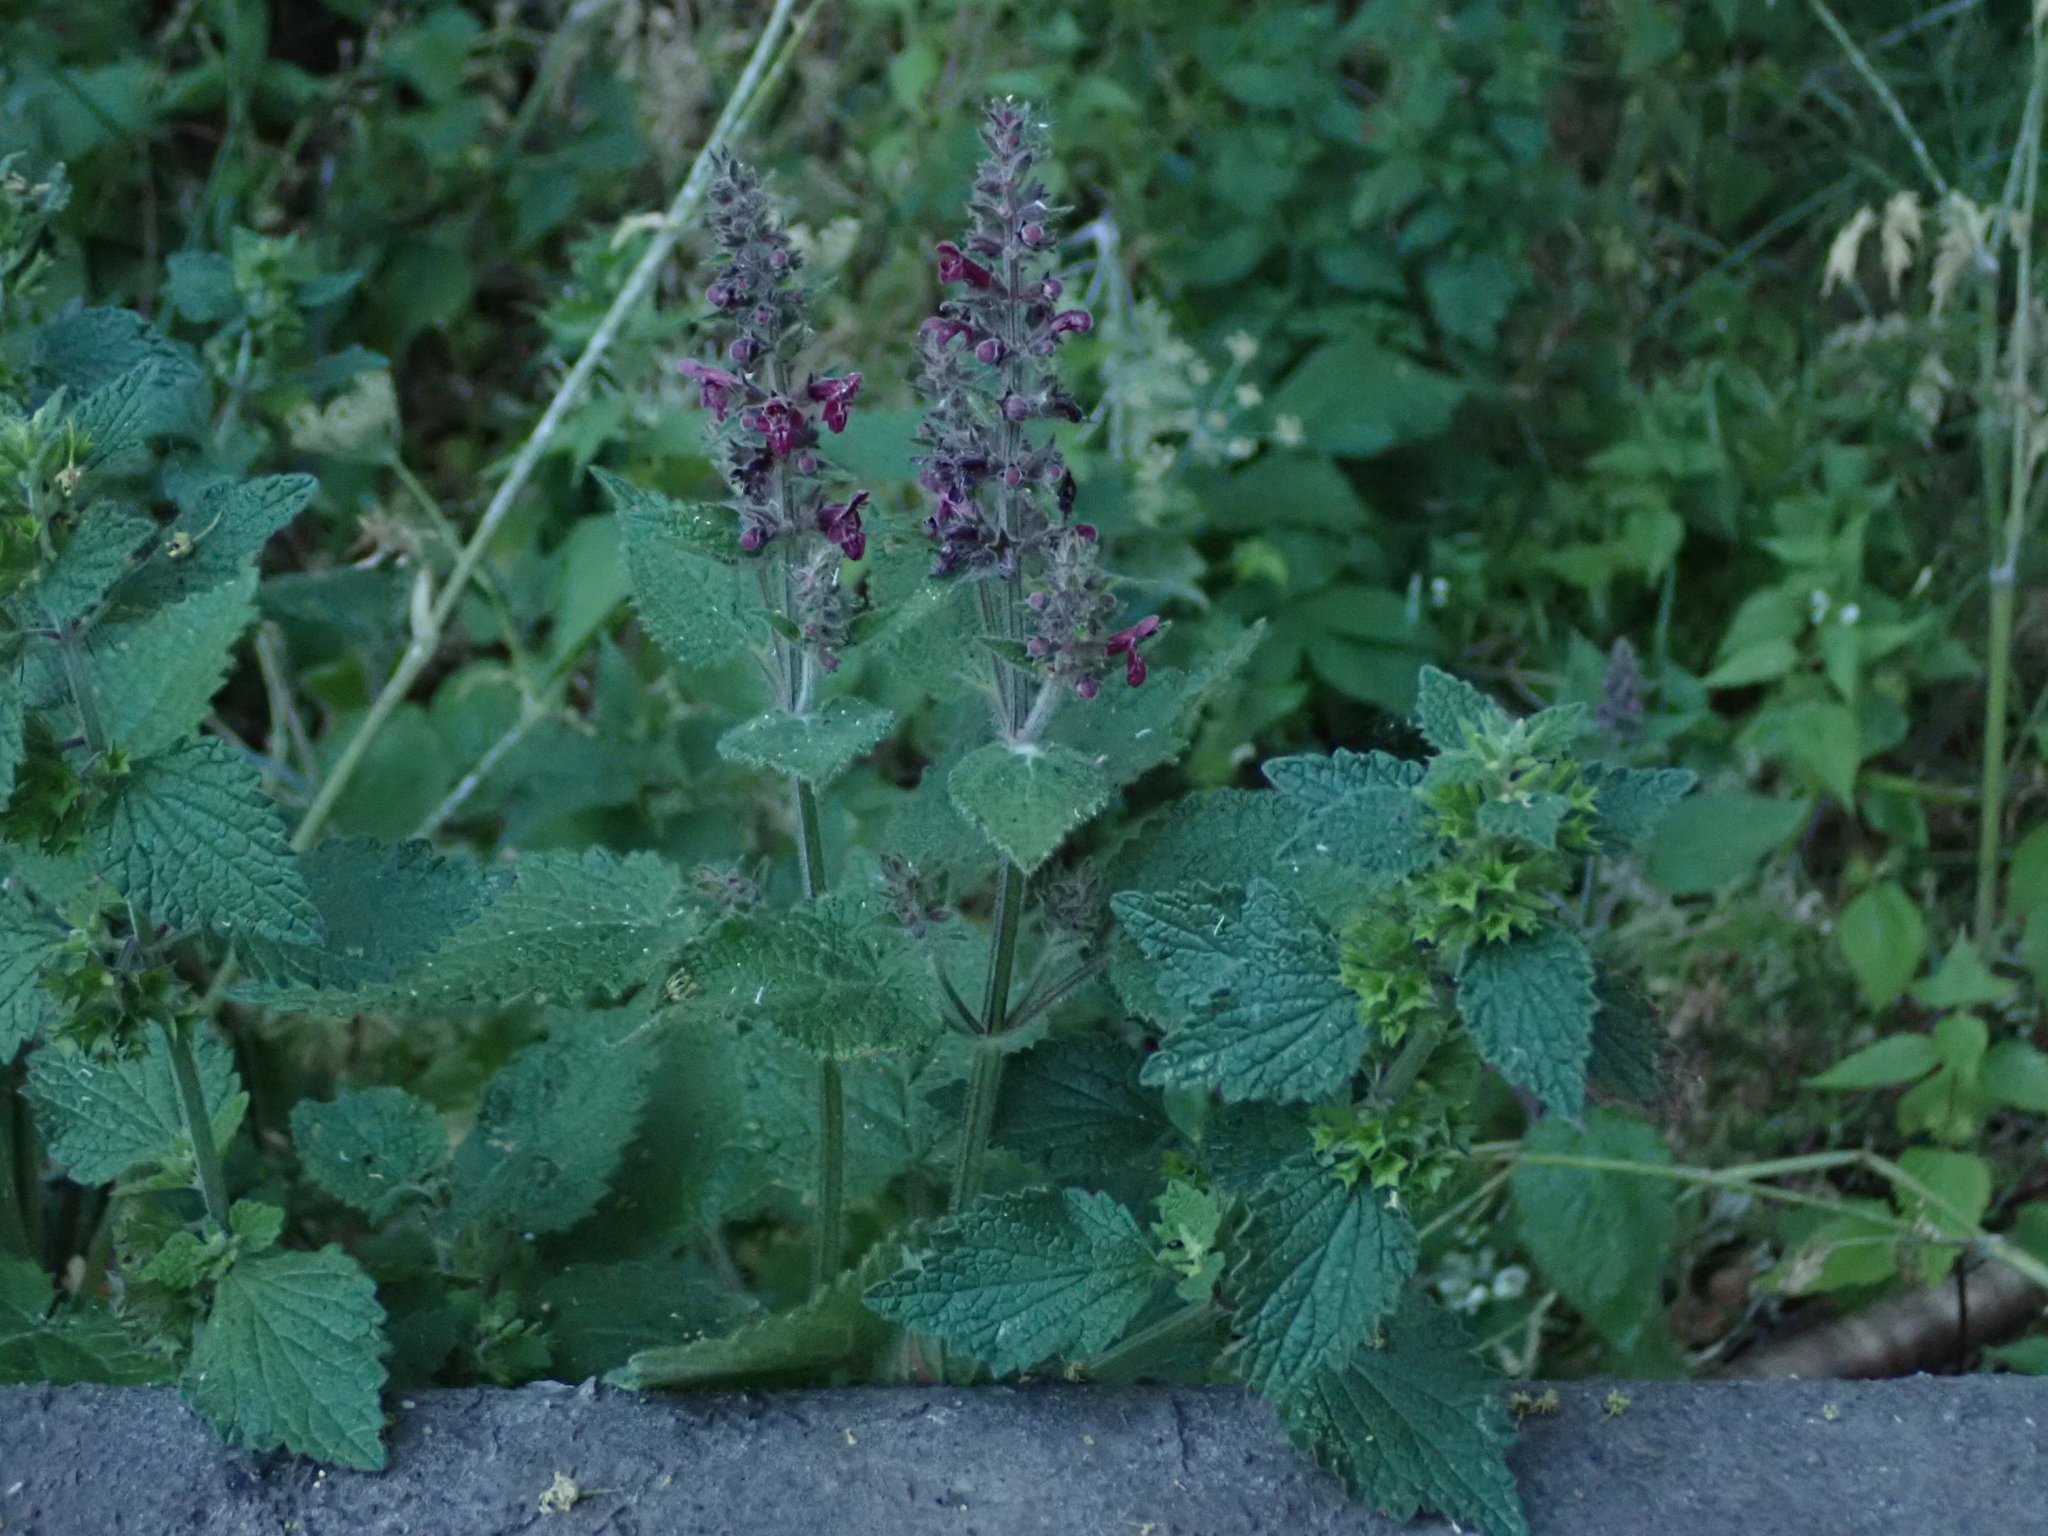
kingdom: Plantae
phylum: Tracheophyta
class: Magnoliopsida
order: Lamiales
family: Lamiaceae
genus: Stachys
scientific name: Stachys sylvatica
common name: Hedge woundwort
